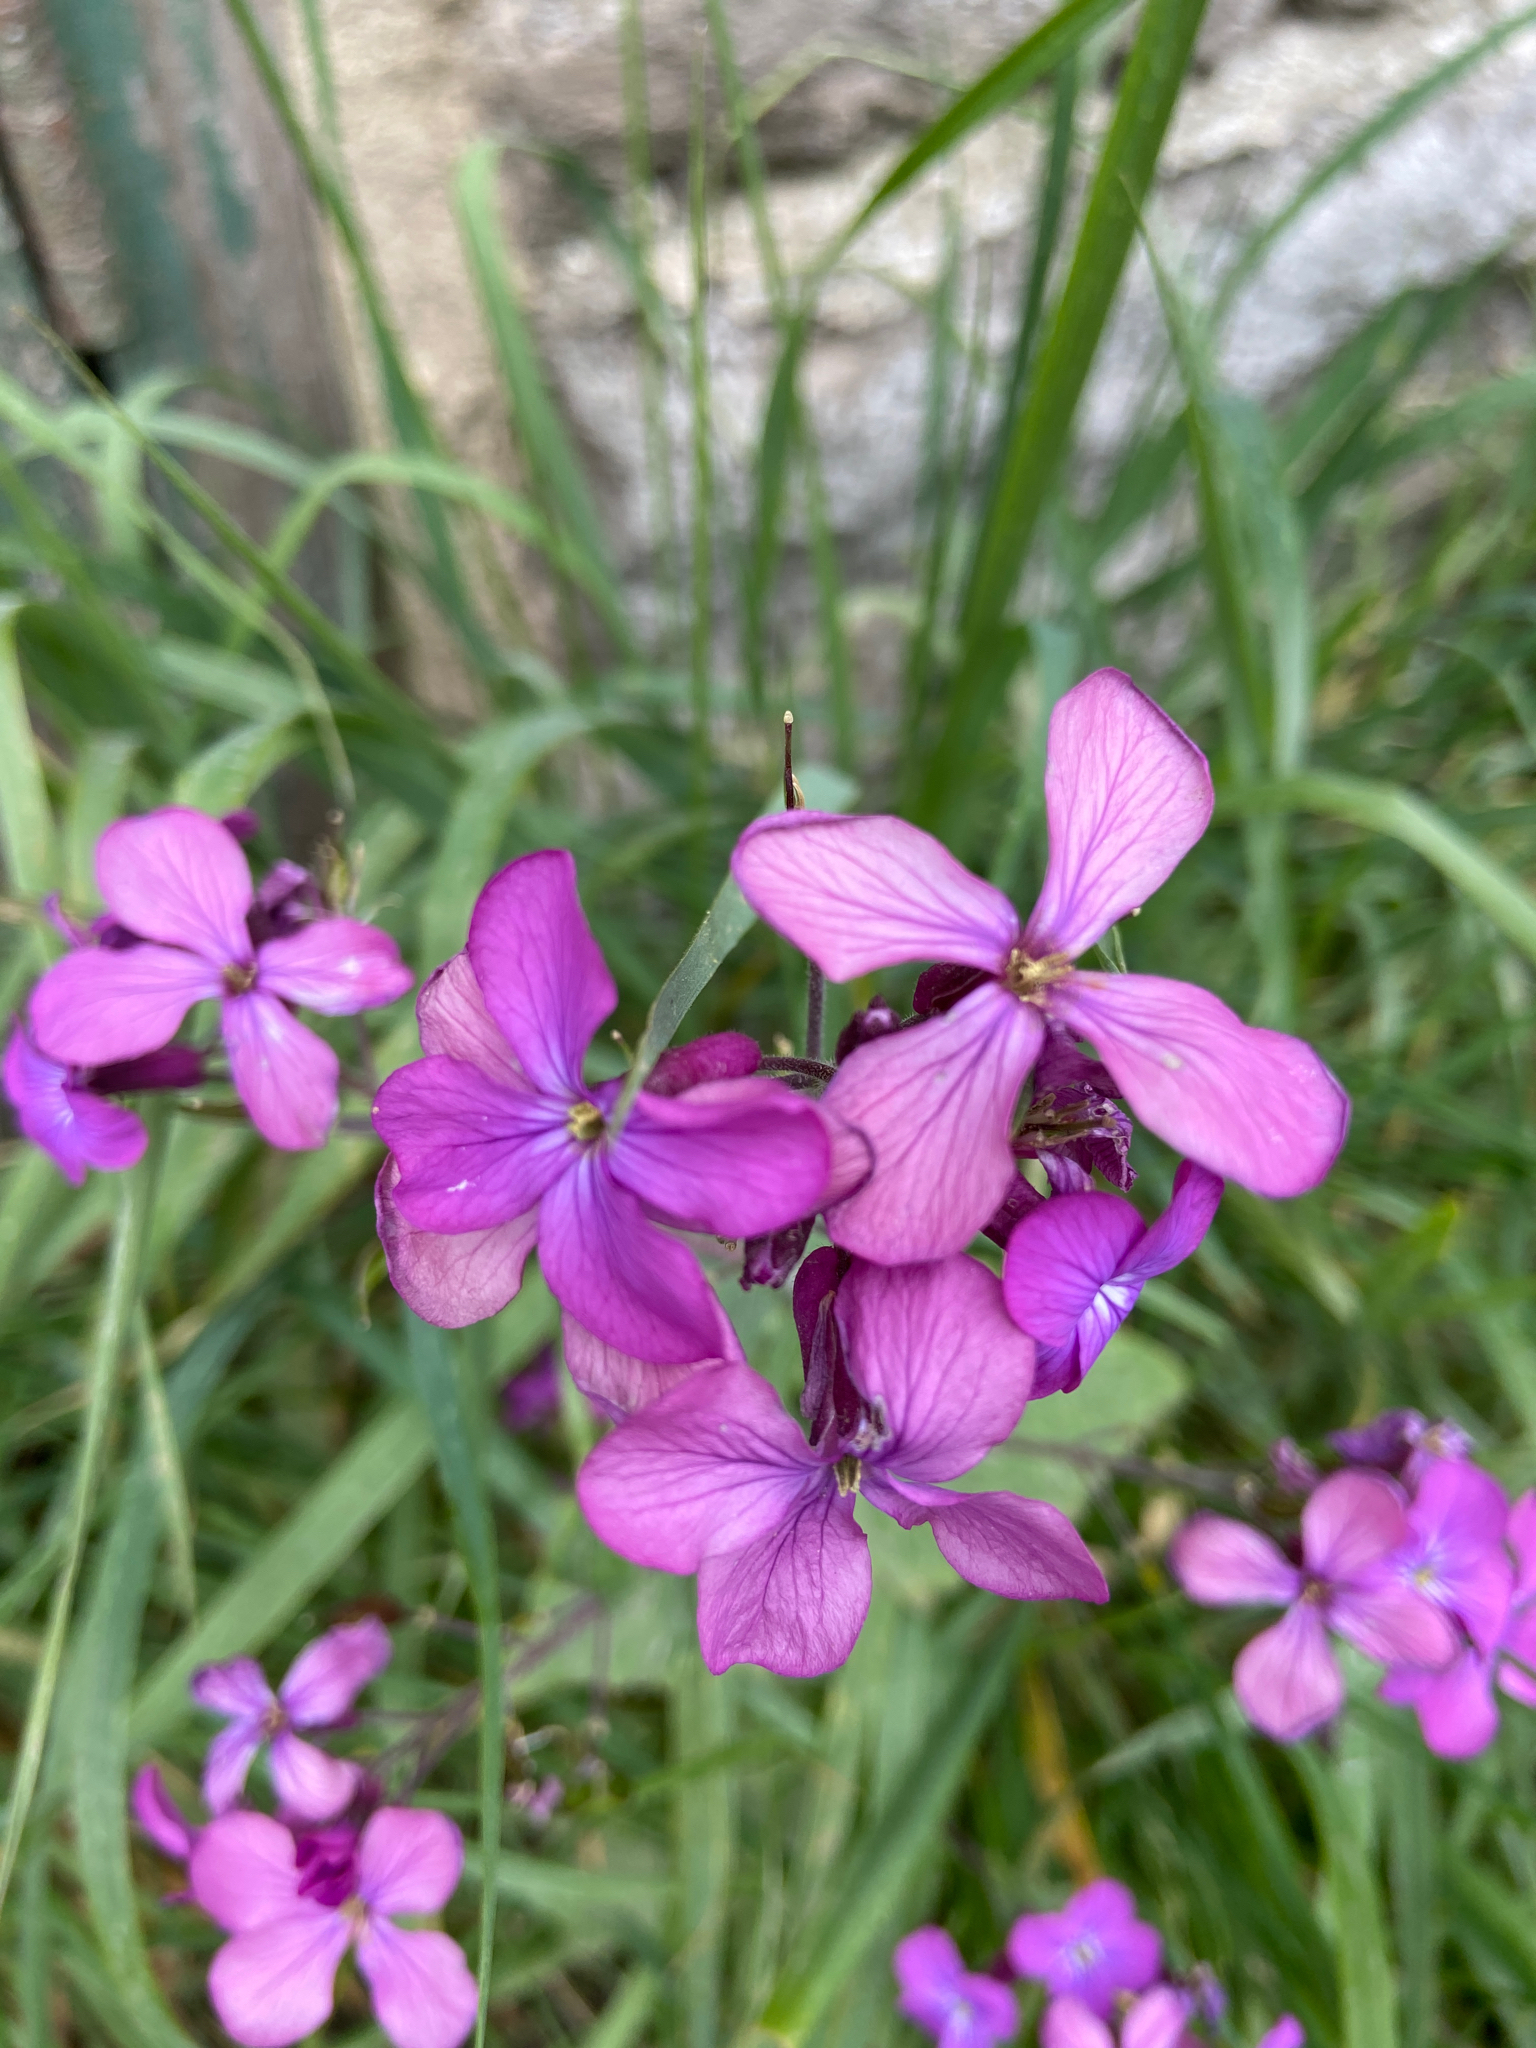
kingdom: Plantae
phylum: Tracheophyta
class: Magnoliopsida
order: Brassicales
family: Brassicaceae
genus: Lunaria
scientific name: Lunaria annua
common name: Honesty
